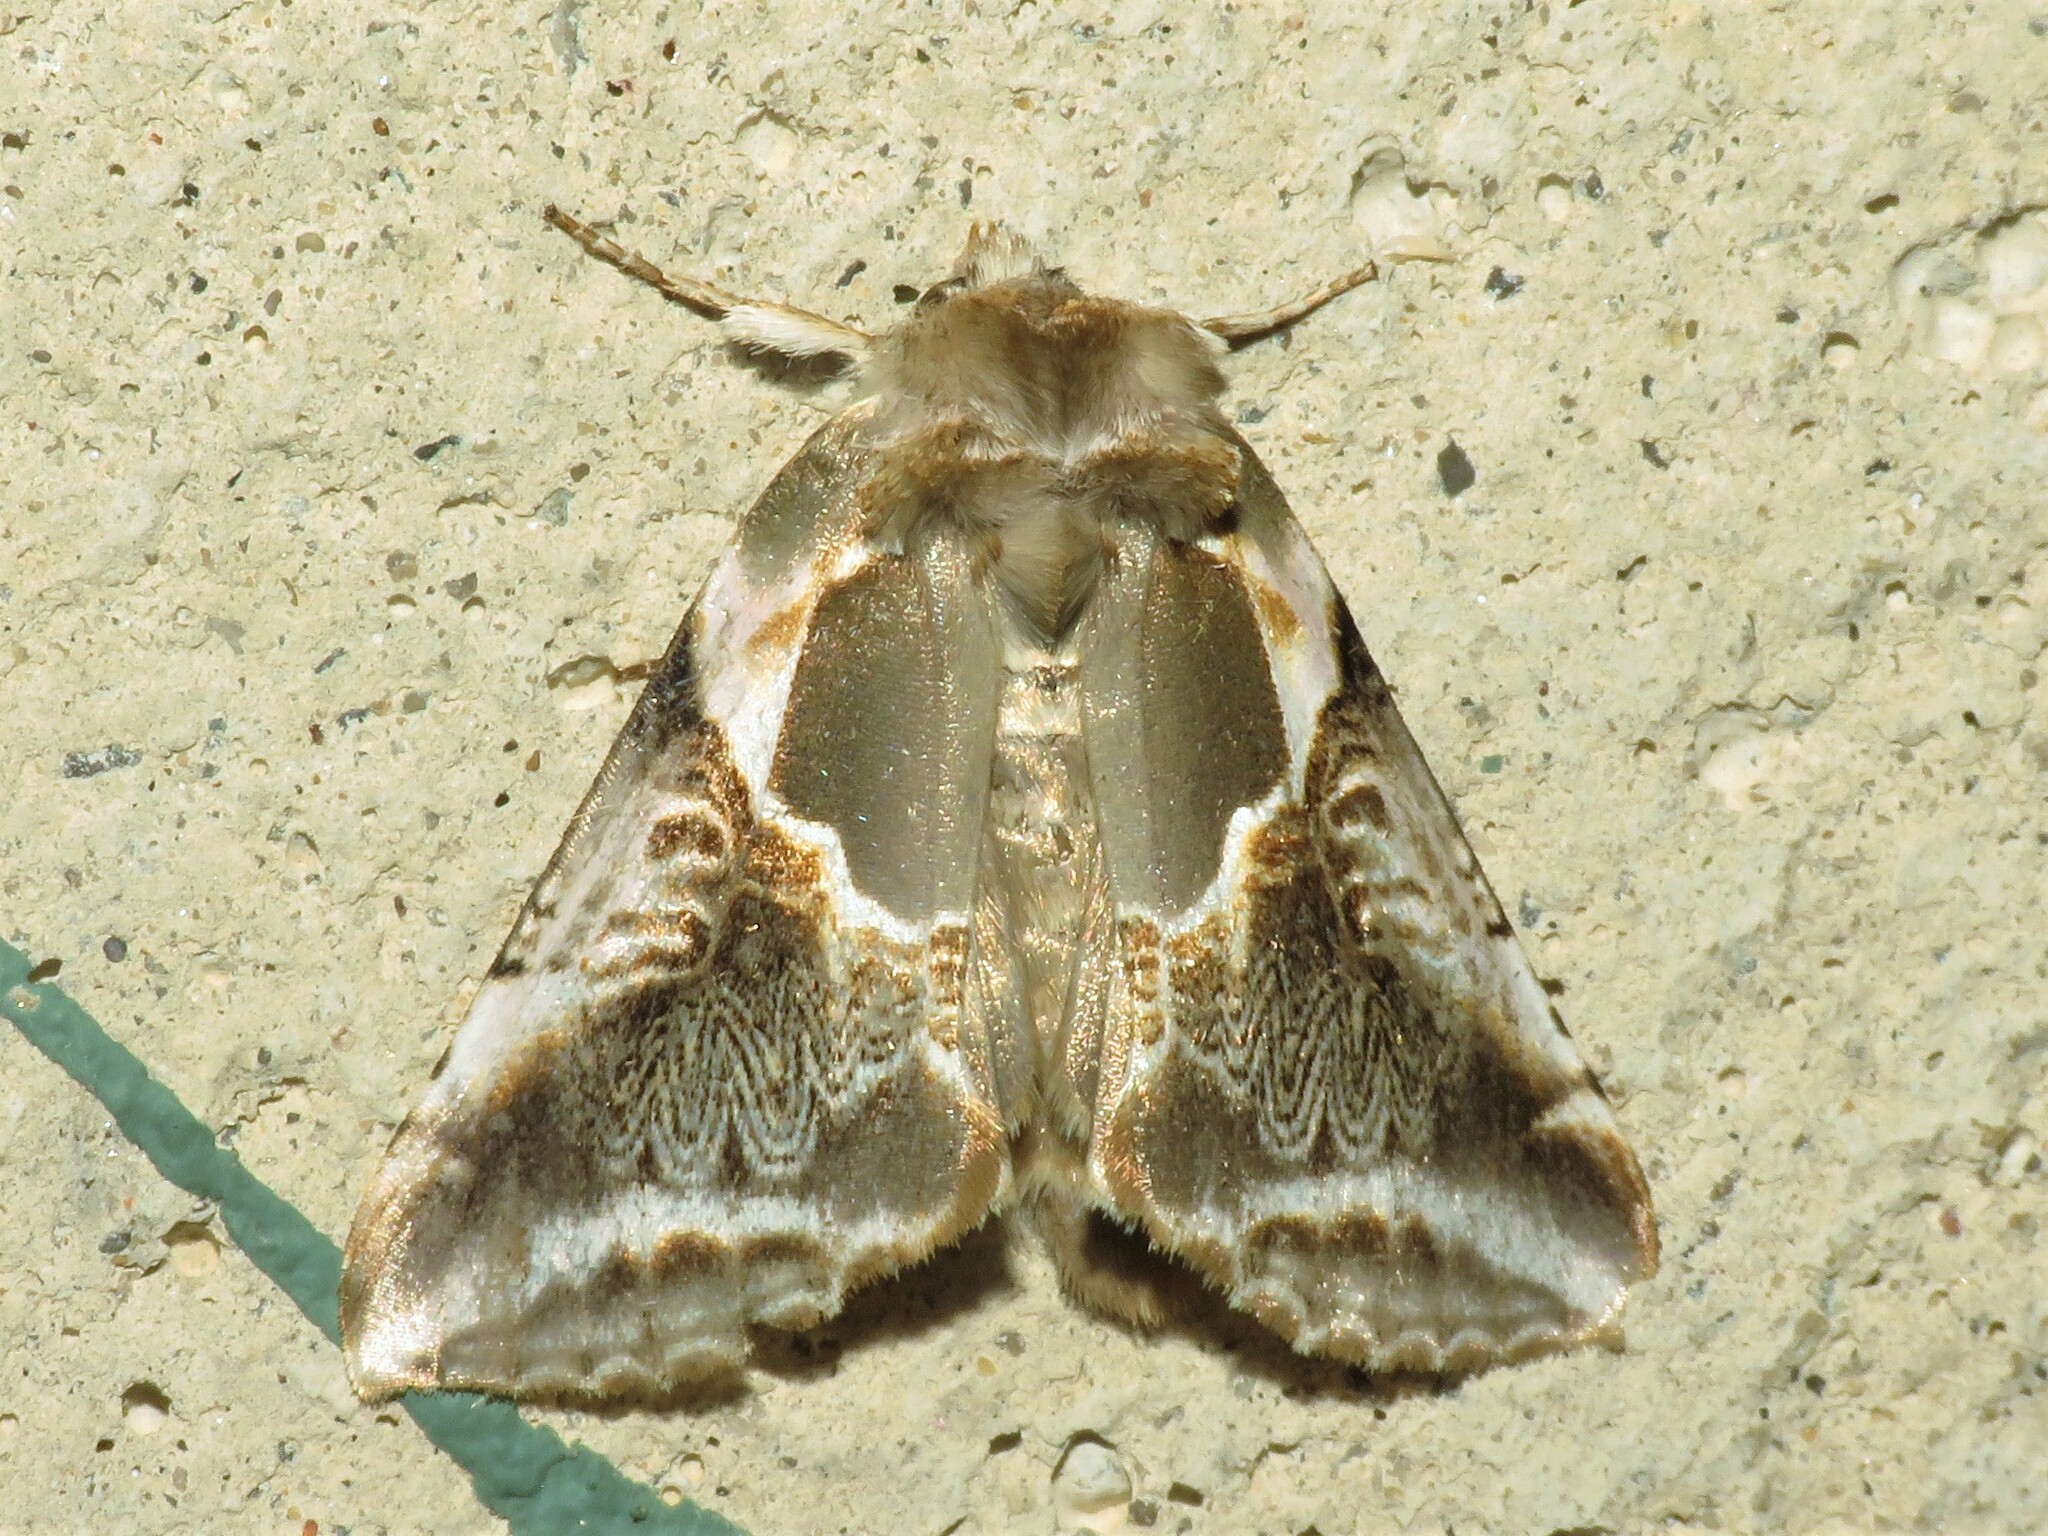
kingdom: Animalia
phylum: Arthropoda
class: Insecta
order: Lepidoptera
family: Drepanidae
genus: Habrosyne
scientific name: Habrosyne scripta
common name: Lettered habrosyne moth
